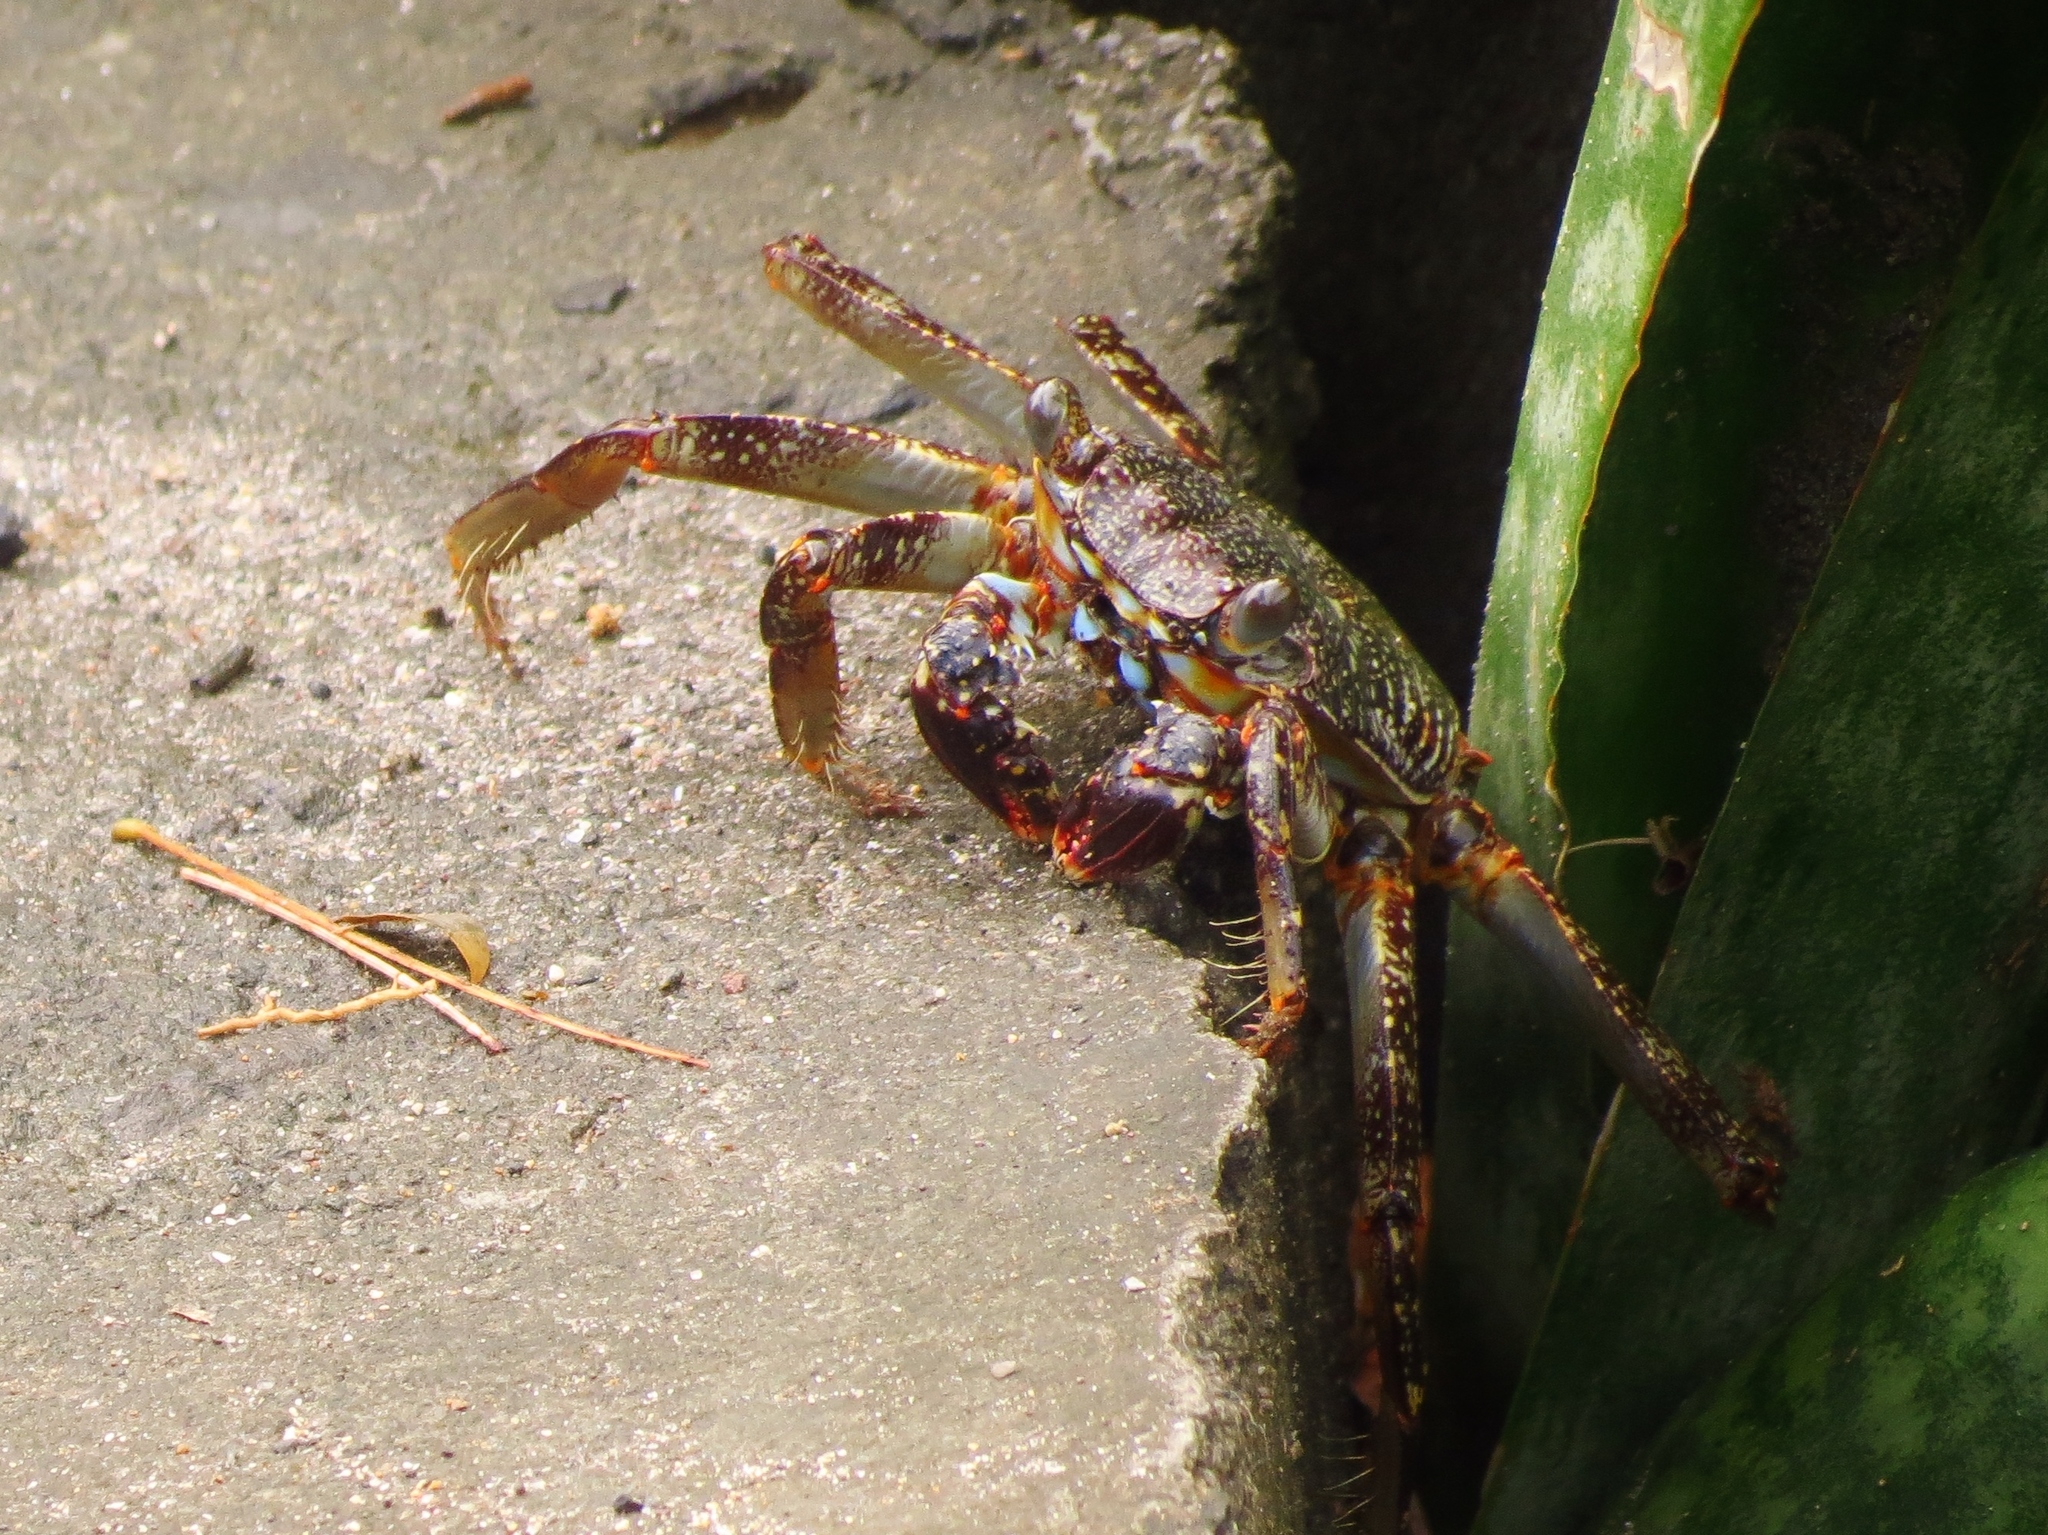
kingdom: Animalia
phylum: Arthropoda
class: Malacostraca
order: Decapoda
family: Grapsidae
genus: Grapsus
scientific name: Grapsus grapsus
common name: Sally lightfoot
